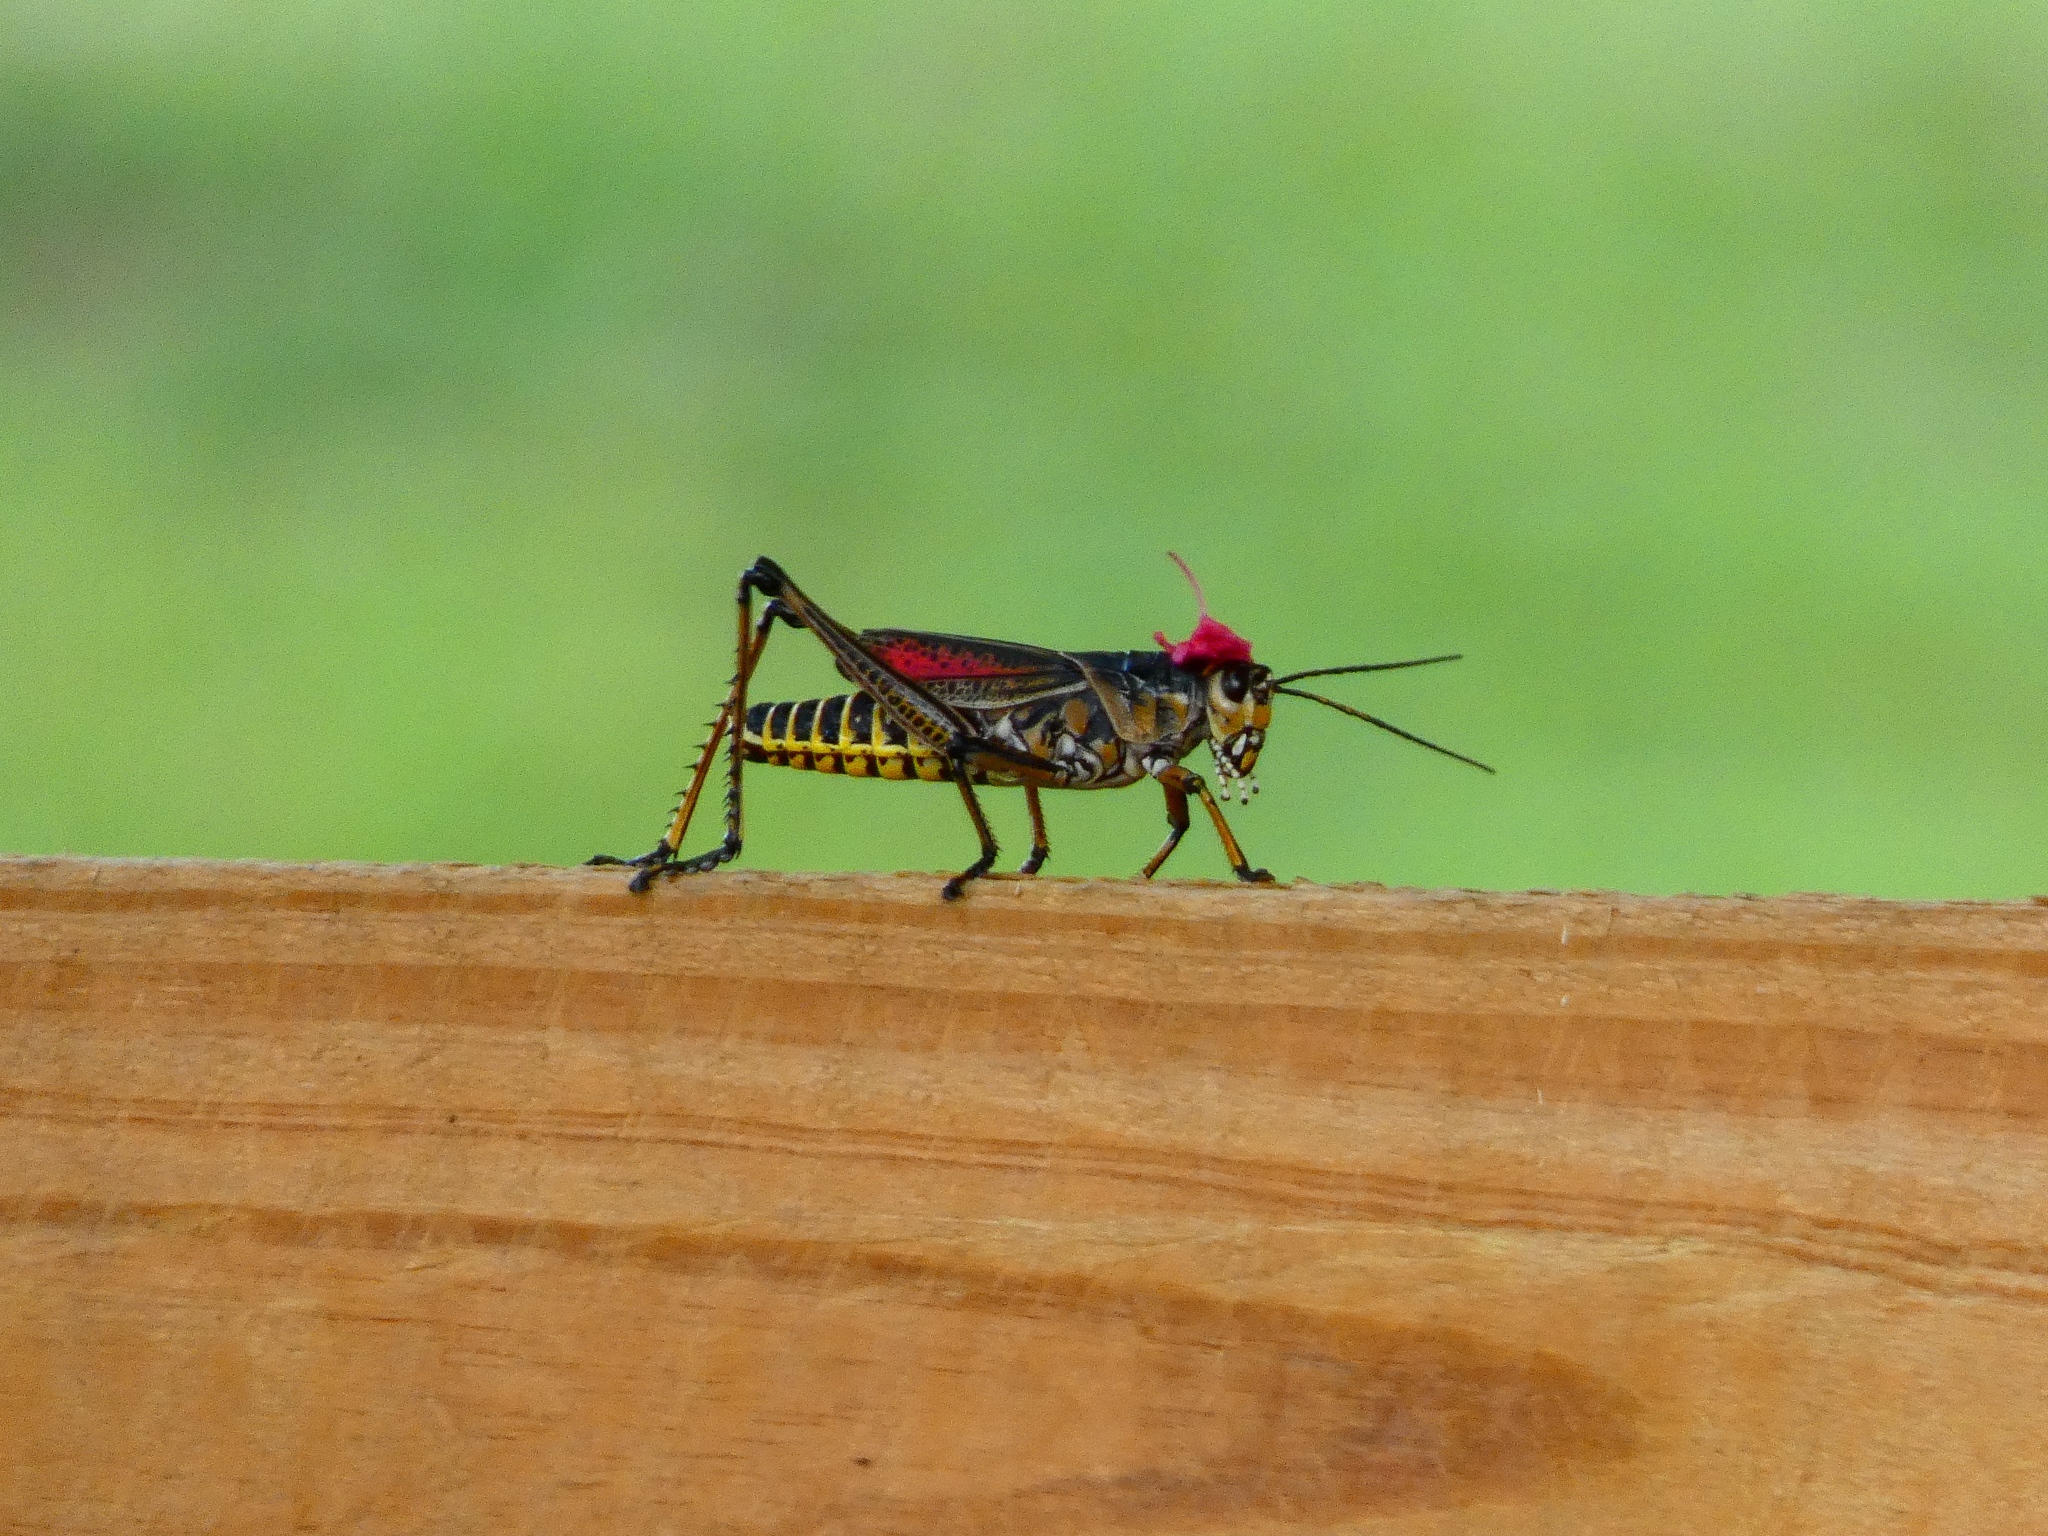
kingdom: Animalia
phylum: Arthropoda
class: Insecta
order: Orthoptera
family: Romaleidae
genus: Romalea
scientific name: Romalea microptera
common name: Eastern lubber grasshopper
